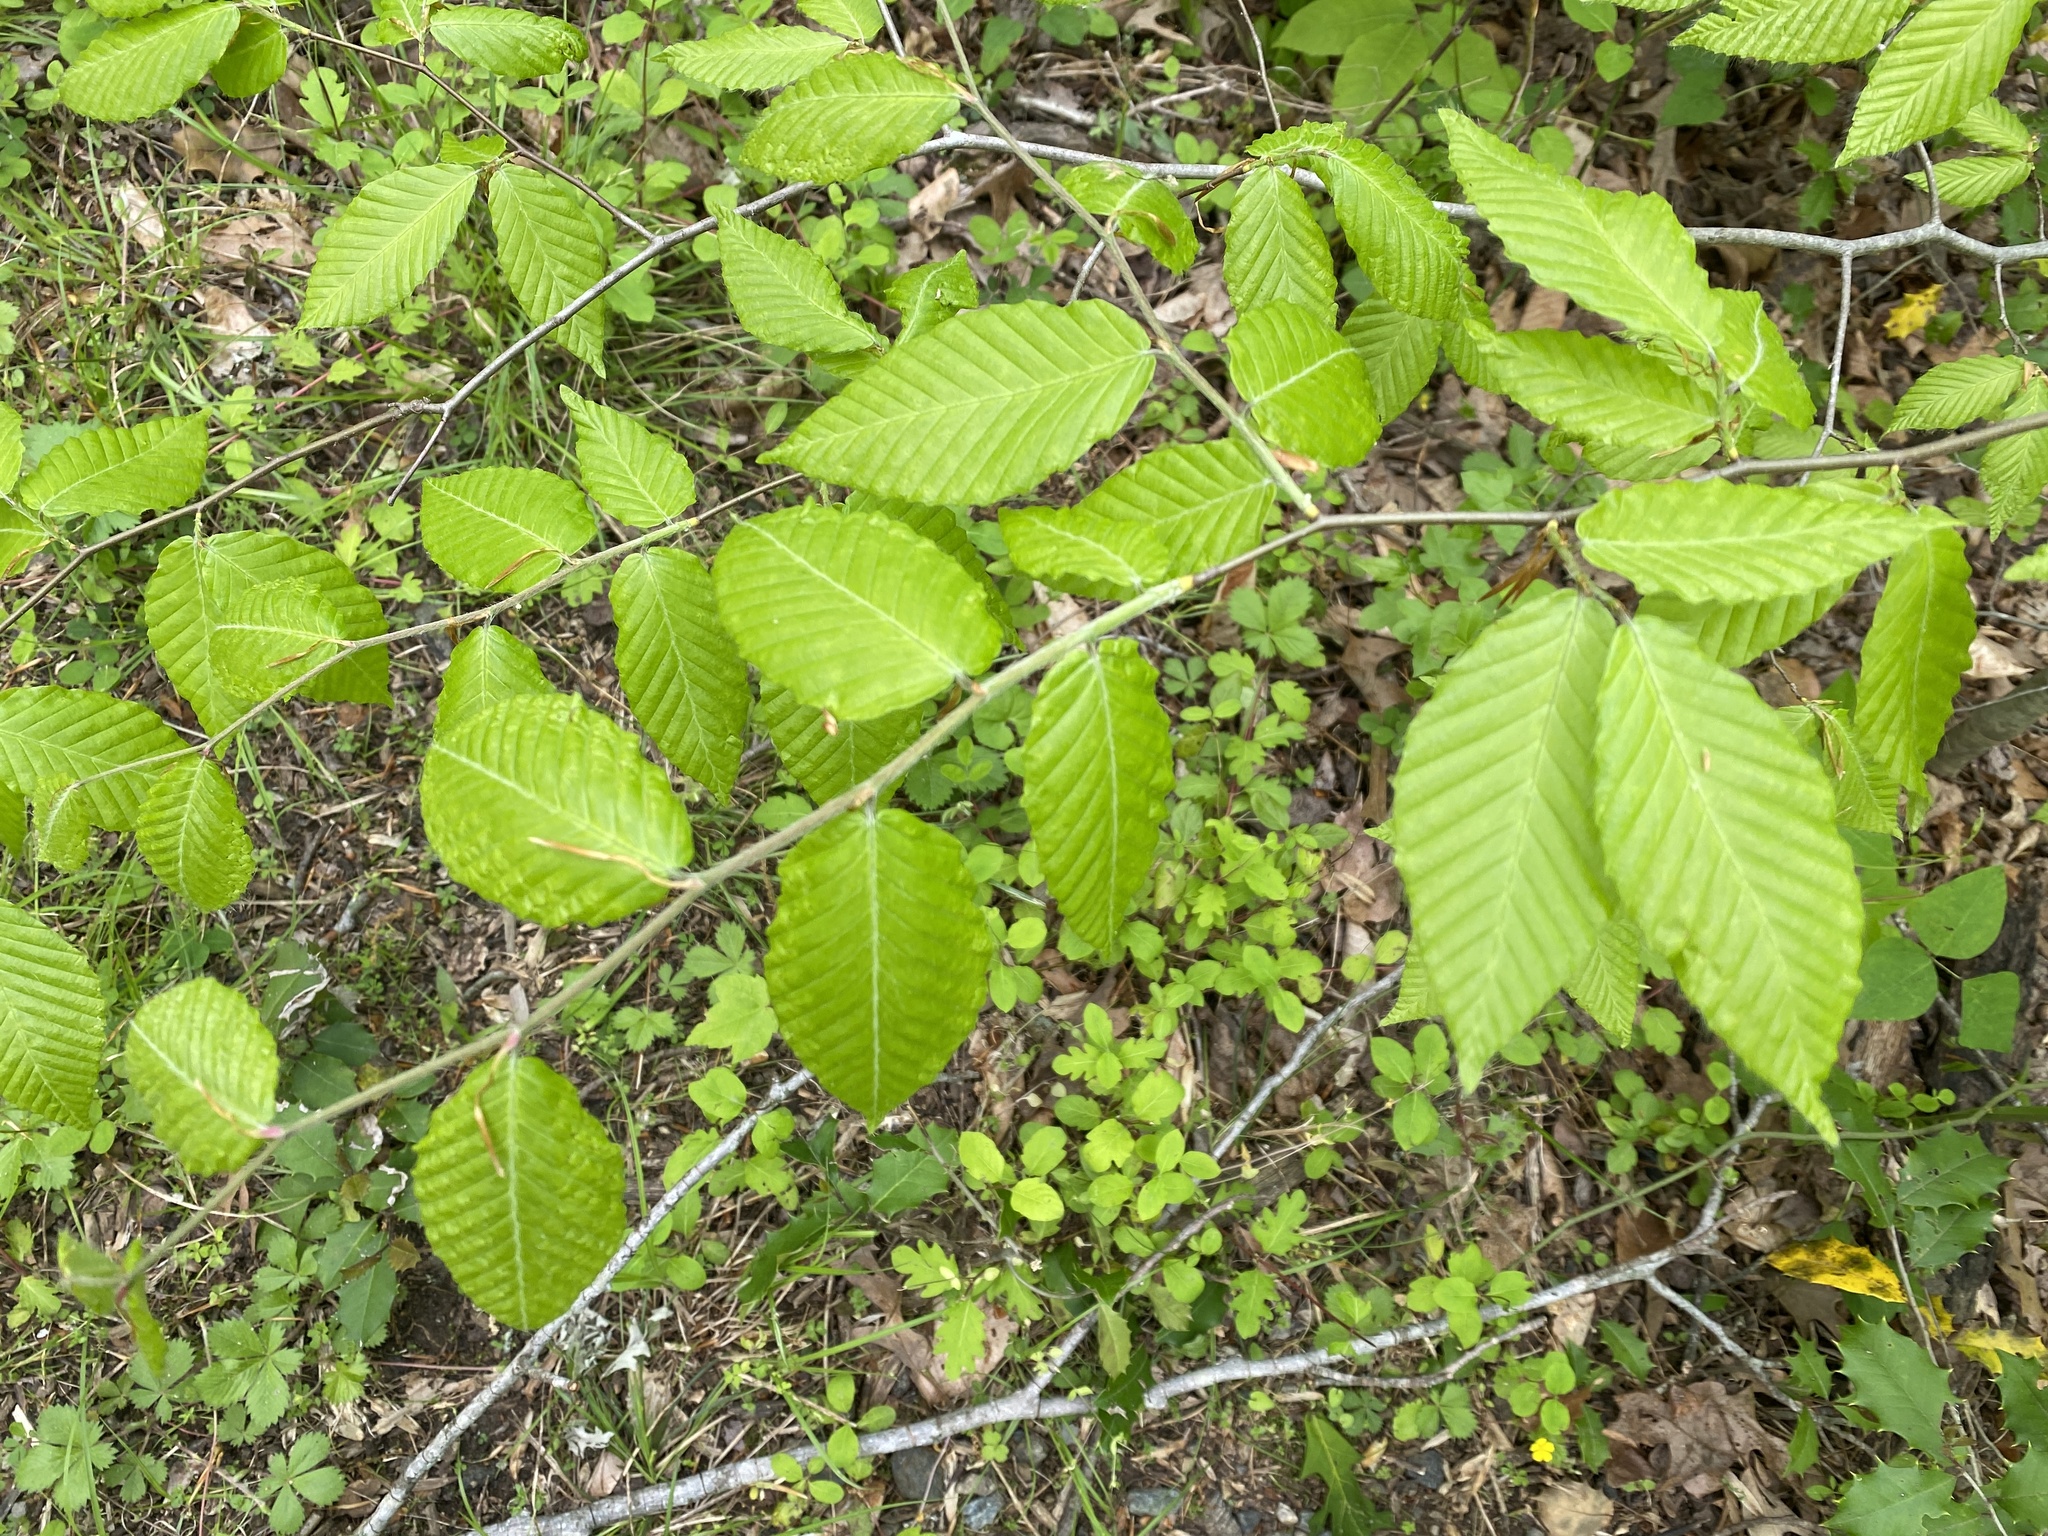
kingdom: Plantae
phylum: Tracheophyta
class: Magnoliopsida
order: Fagales
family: Fagaceae
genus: Fagus
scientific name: Fagus grandifolia
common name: American beech
